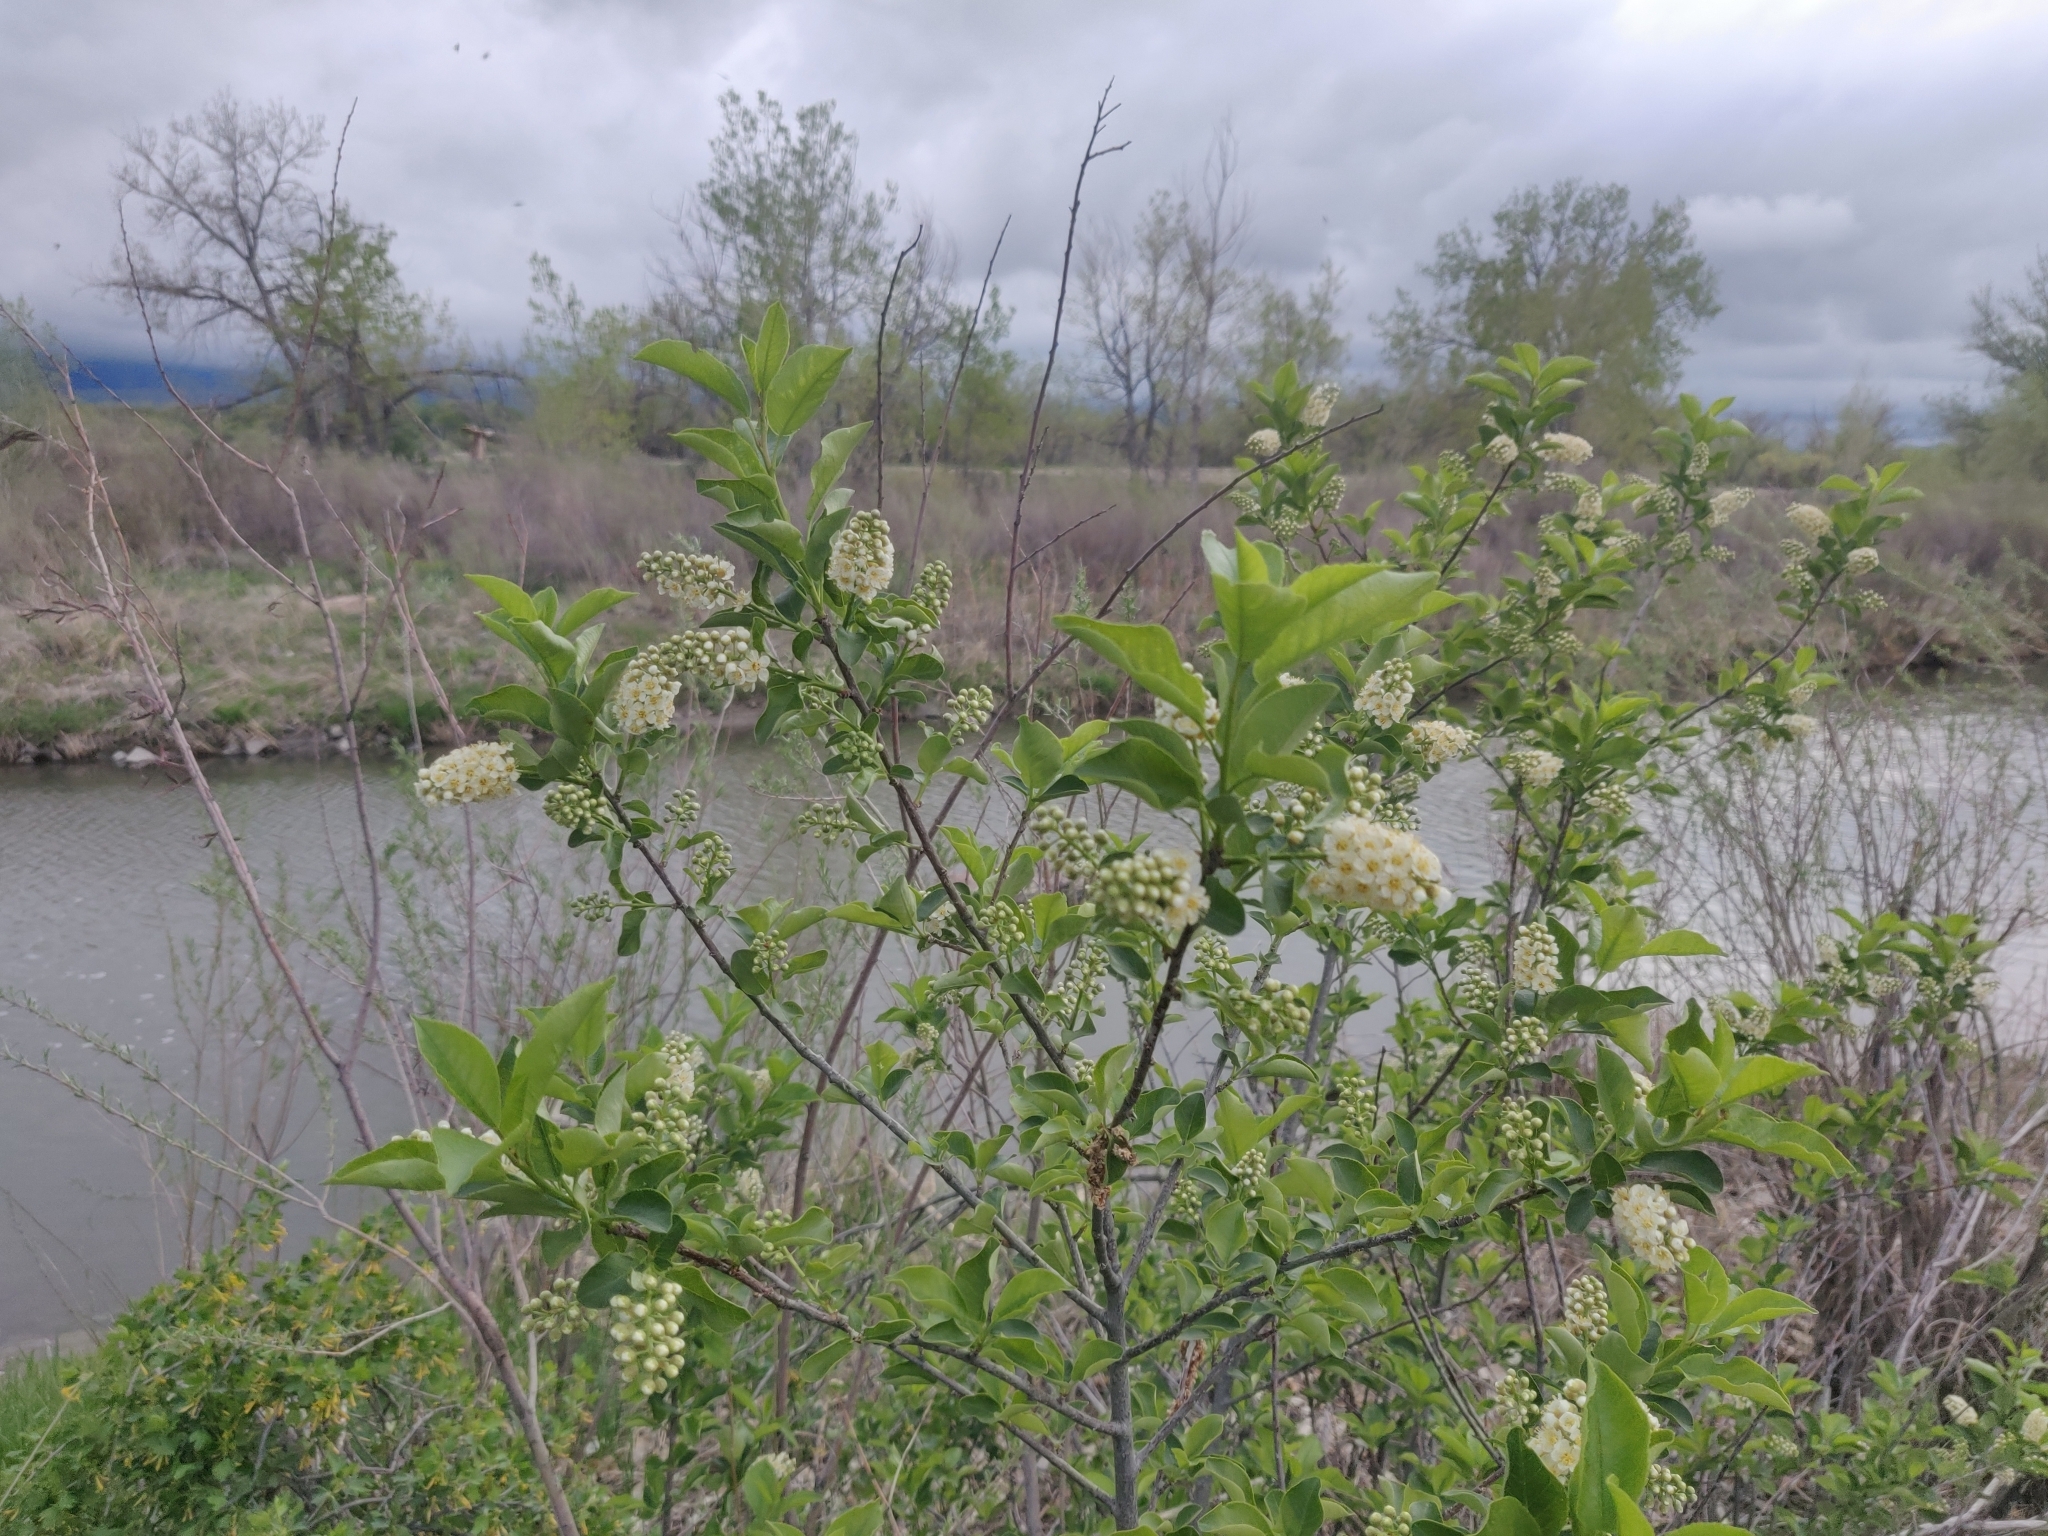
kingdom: Plantae
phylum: Tracheophyta
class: Magnoliopsida
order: Rosales
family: Rosaceae
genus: Prunus
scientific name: Prunus virginiana
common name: Chokecherry
